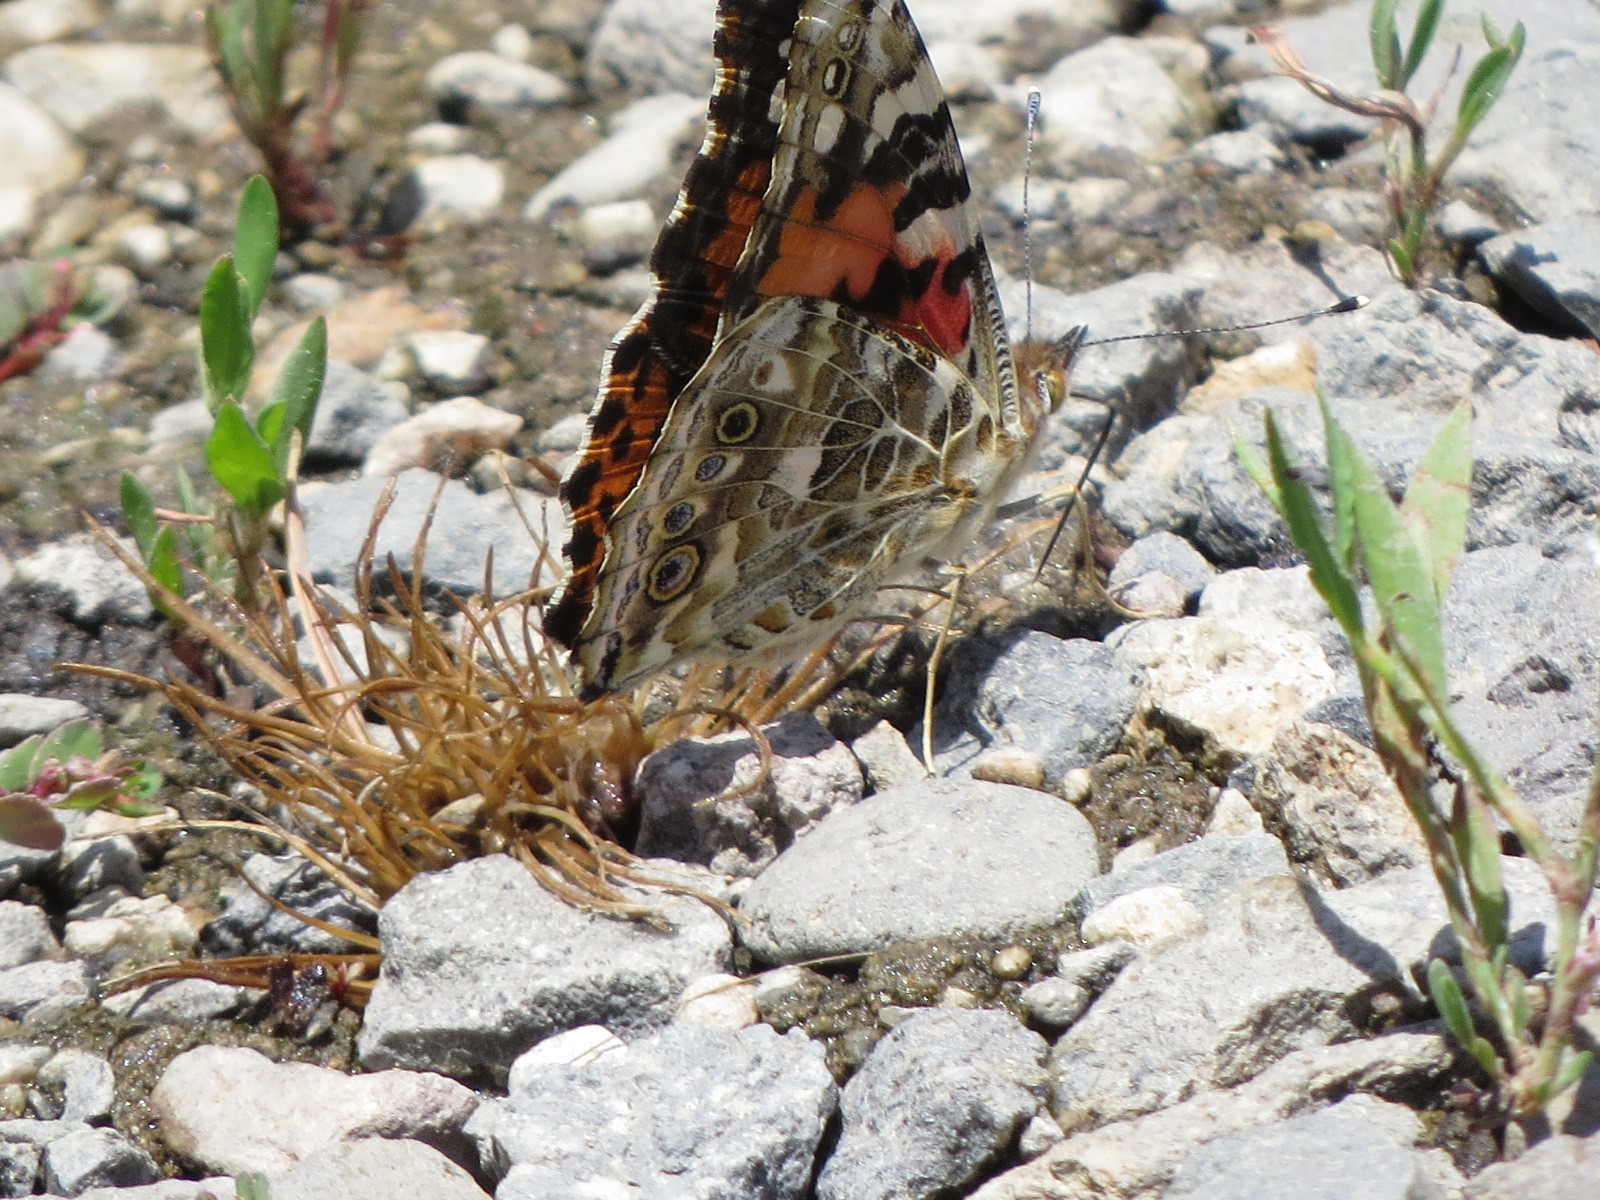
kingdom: Animalia
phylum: Arthropoda
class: Insecta
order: Lepidoptera
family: Nymphalidae
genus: Vanessa
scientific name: Vanessa cardui
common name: Painted lady
